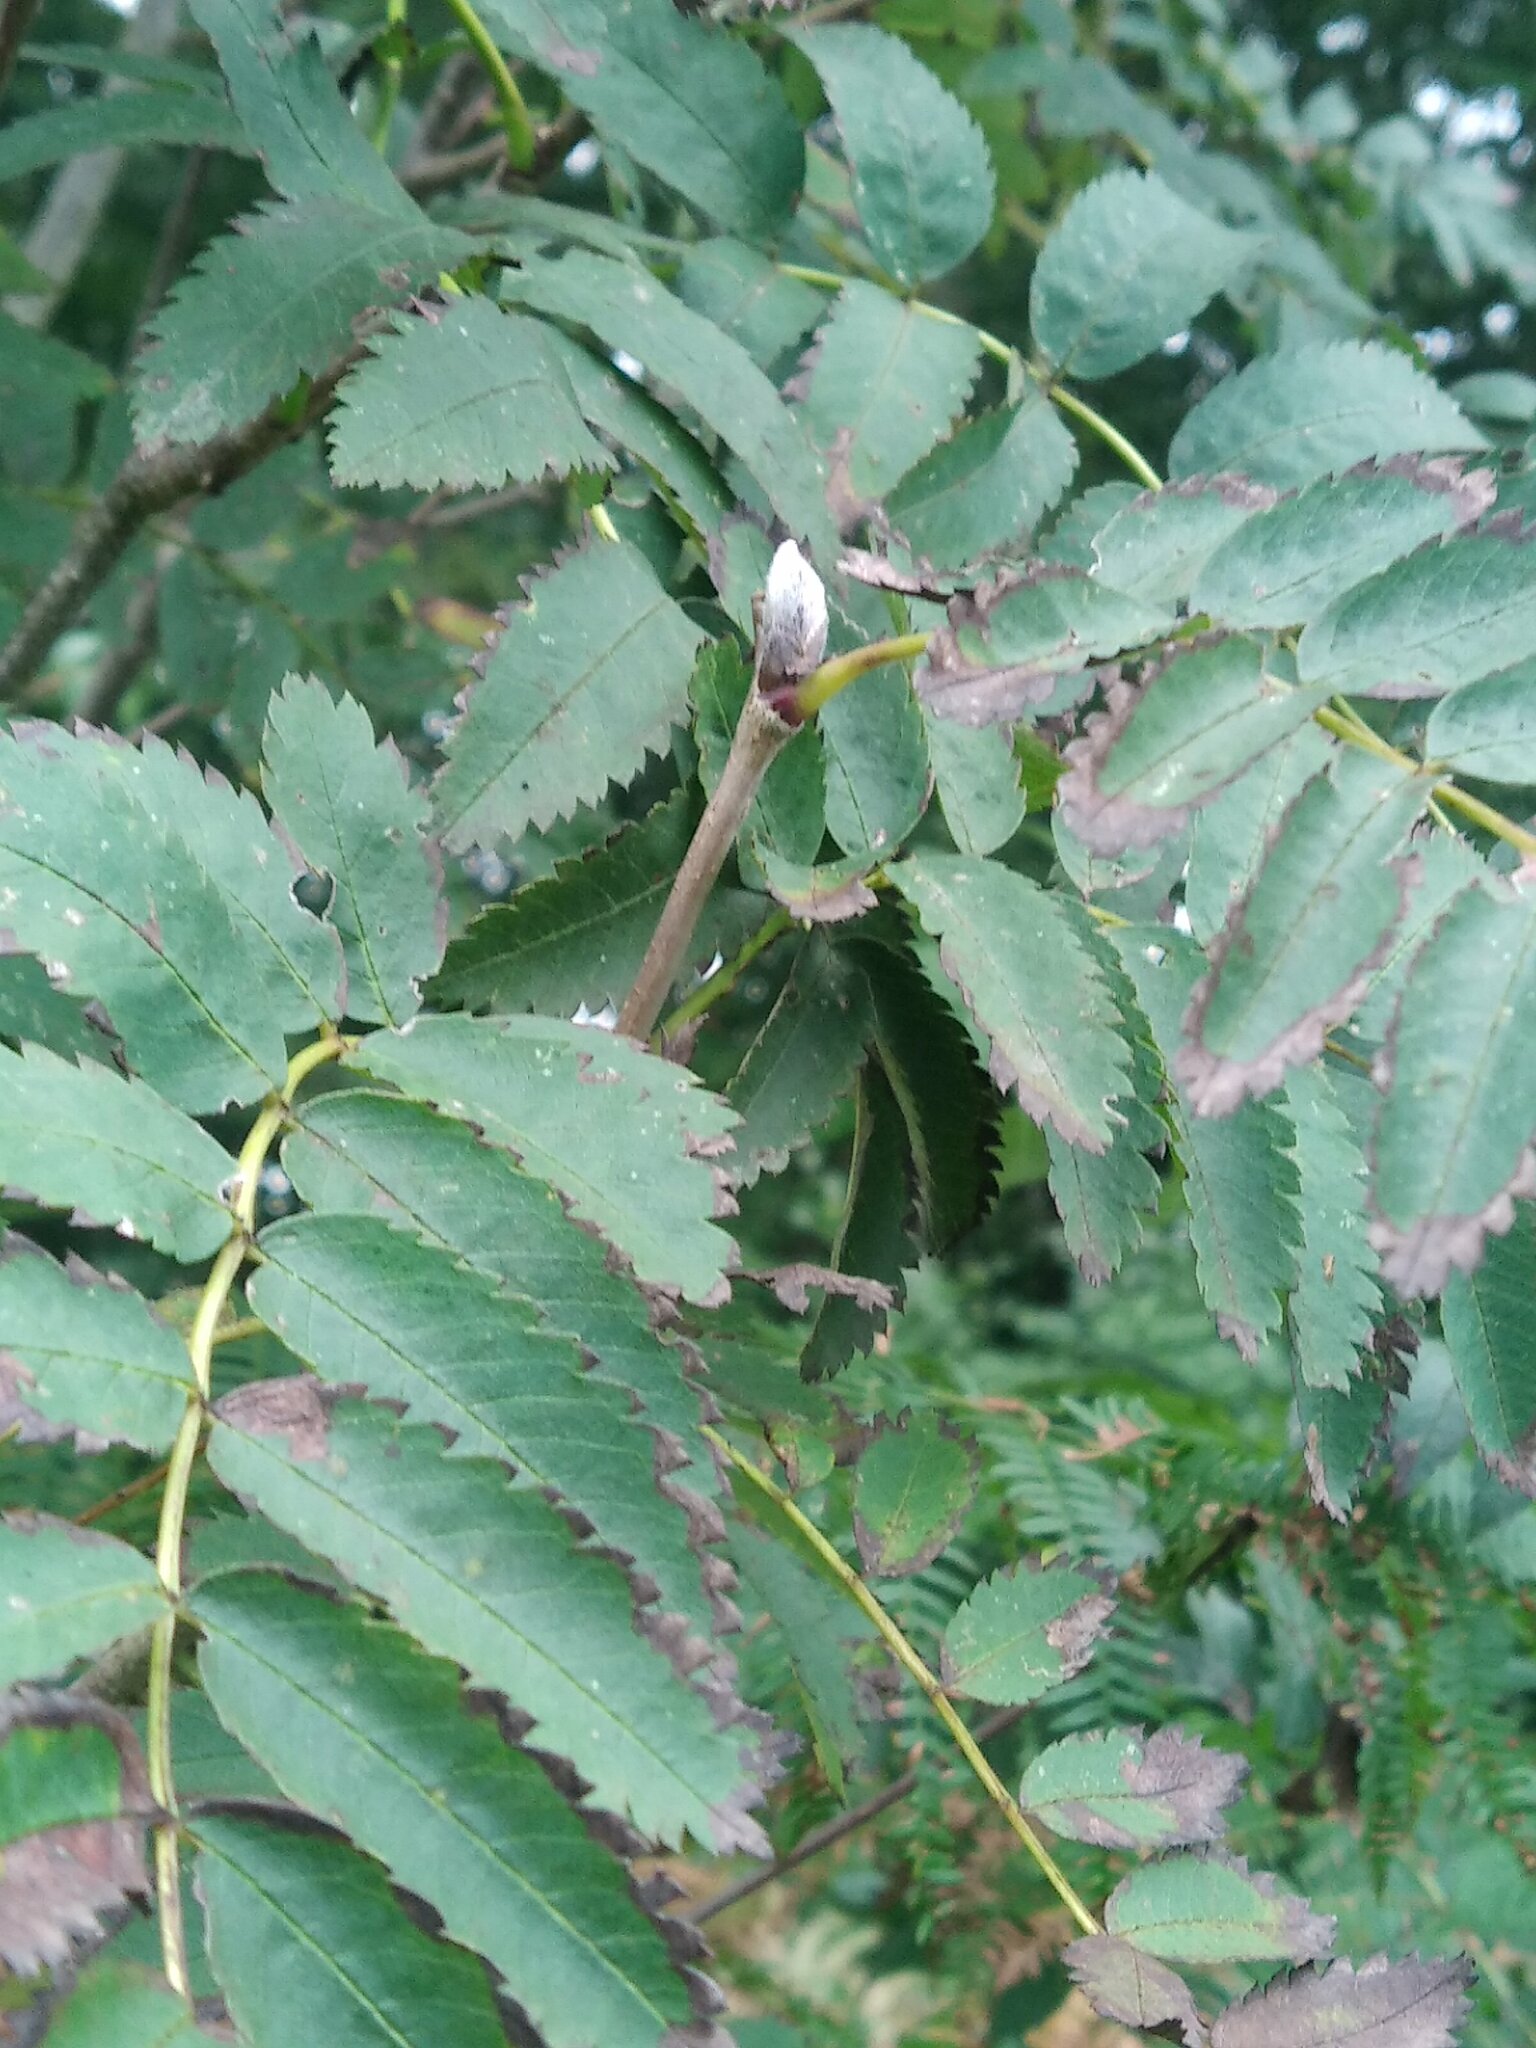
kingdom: Plantae
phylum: Tracheophyta
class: Magnoliopsida
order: Rosales
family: Rosaceae
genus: Sorbus
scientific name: Sorbus aucuparia
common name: Rowan
